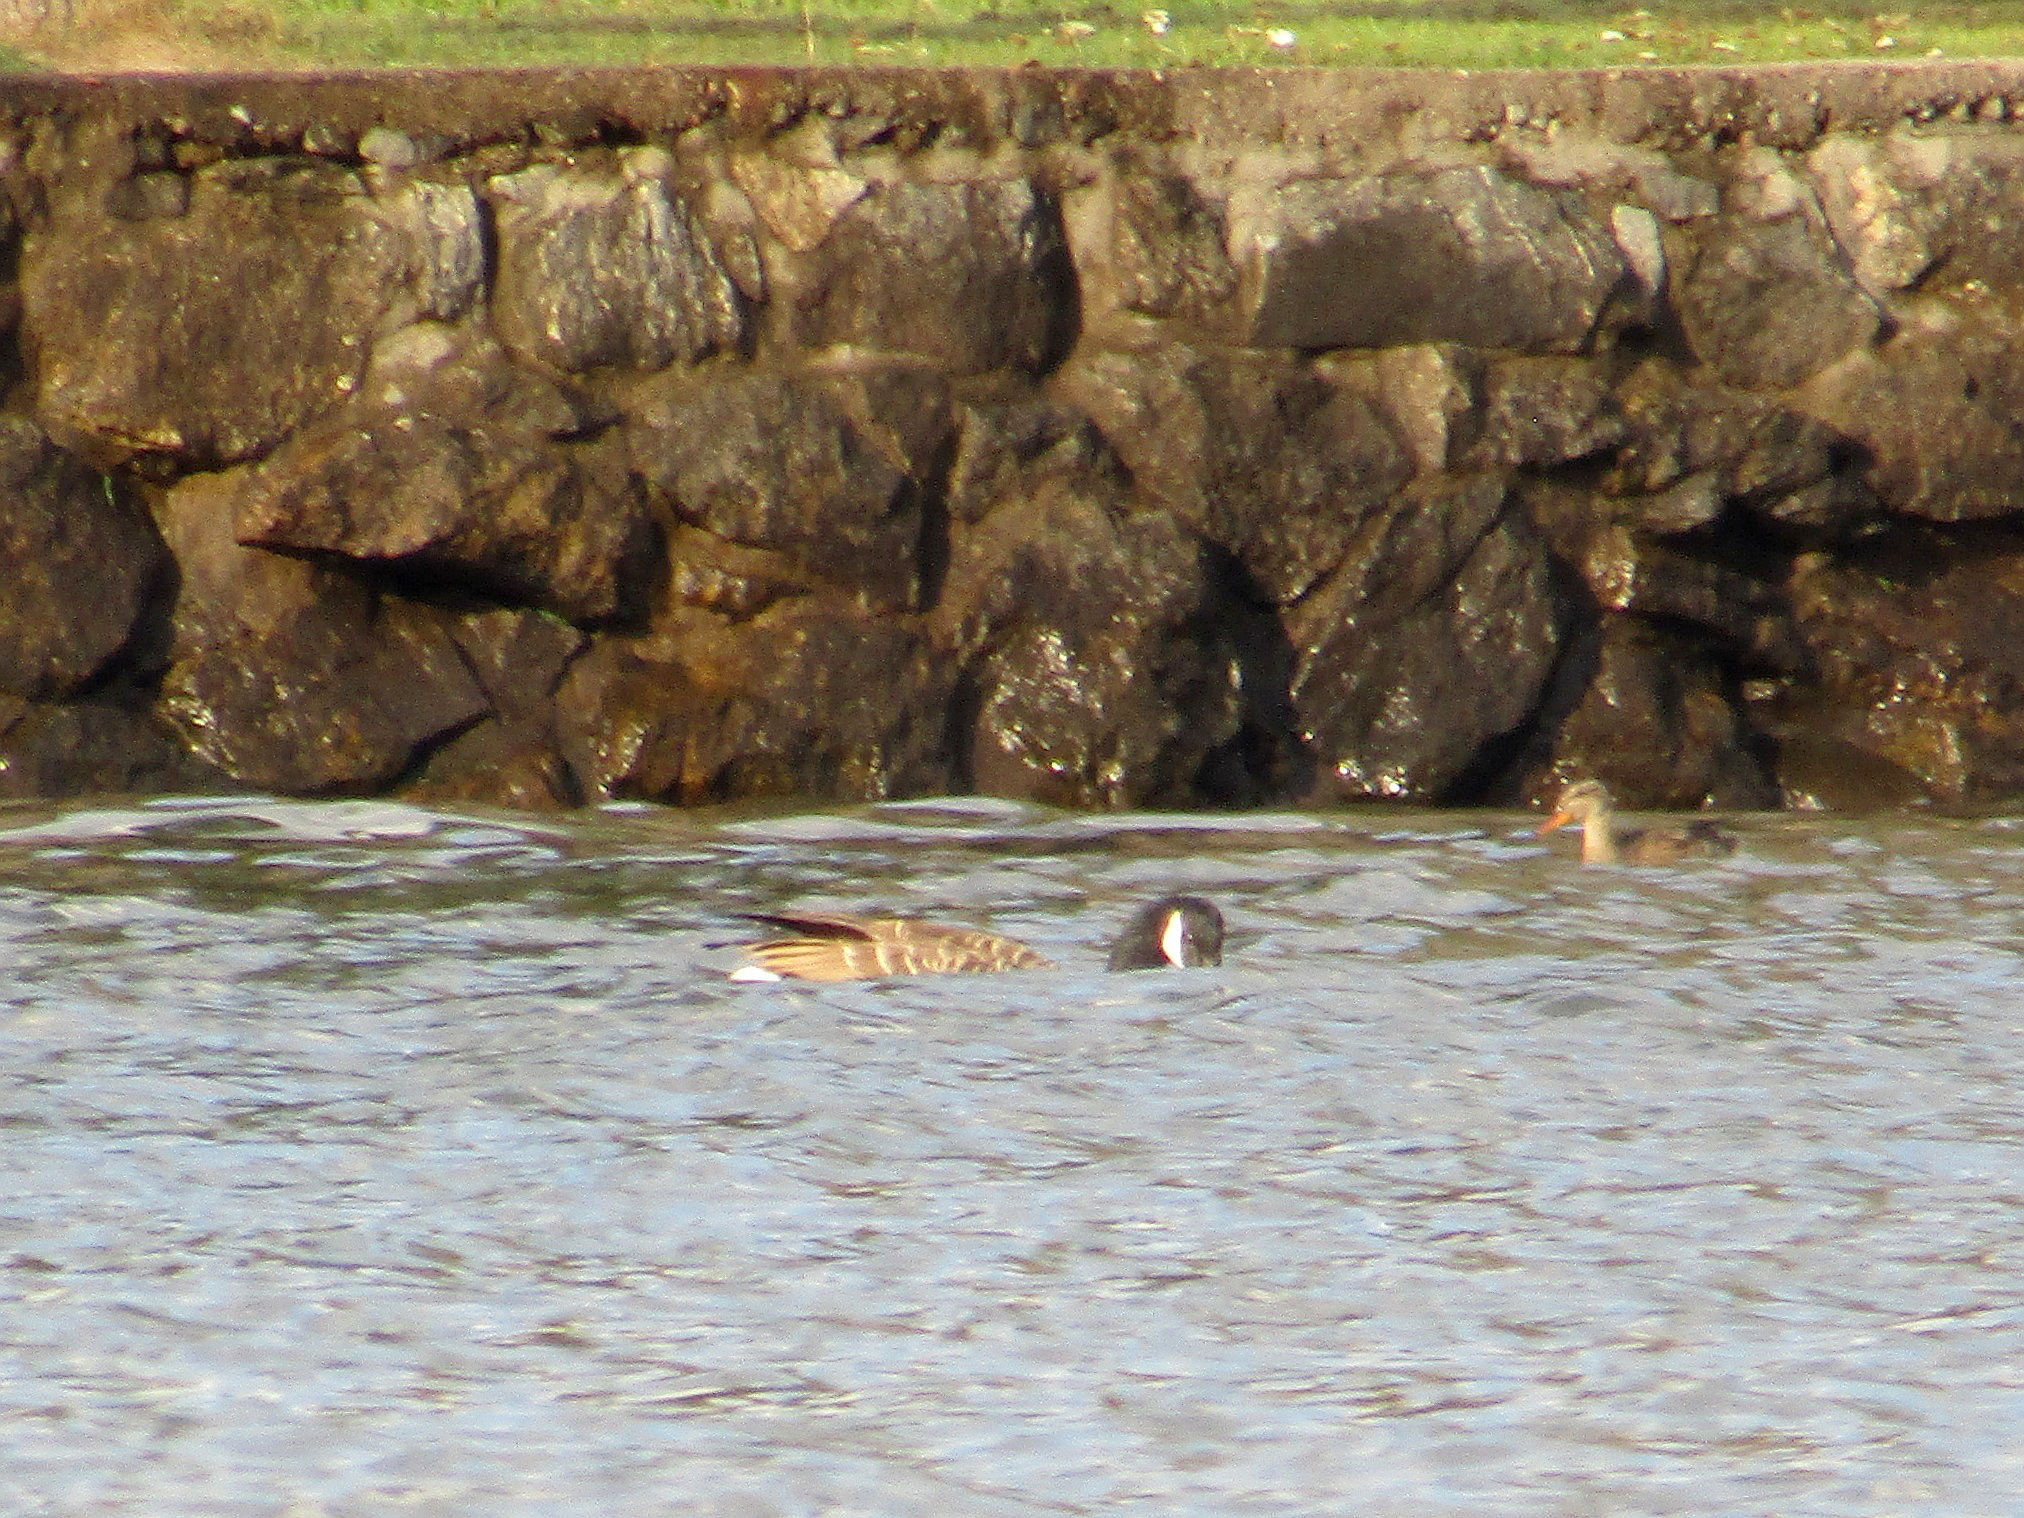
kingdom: Animalia
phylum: Chordata
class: Aves
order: Anseriformes
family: Anatidae
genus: Branta
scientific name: Branta canadensis
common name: Canada goose
